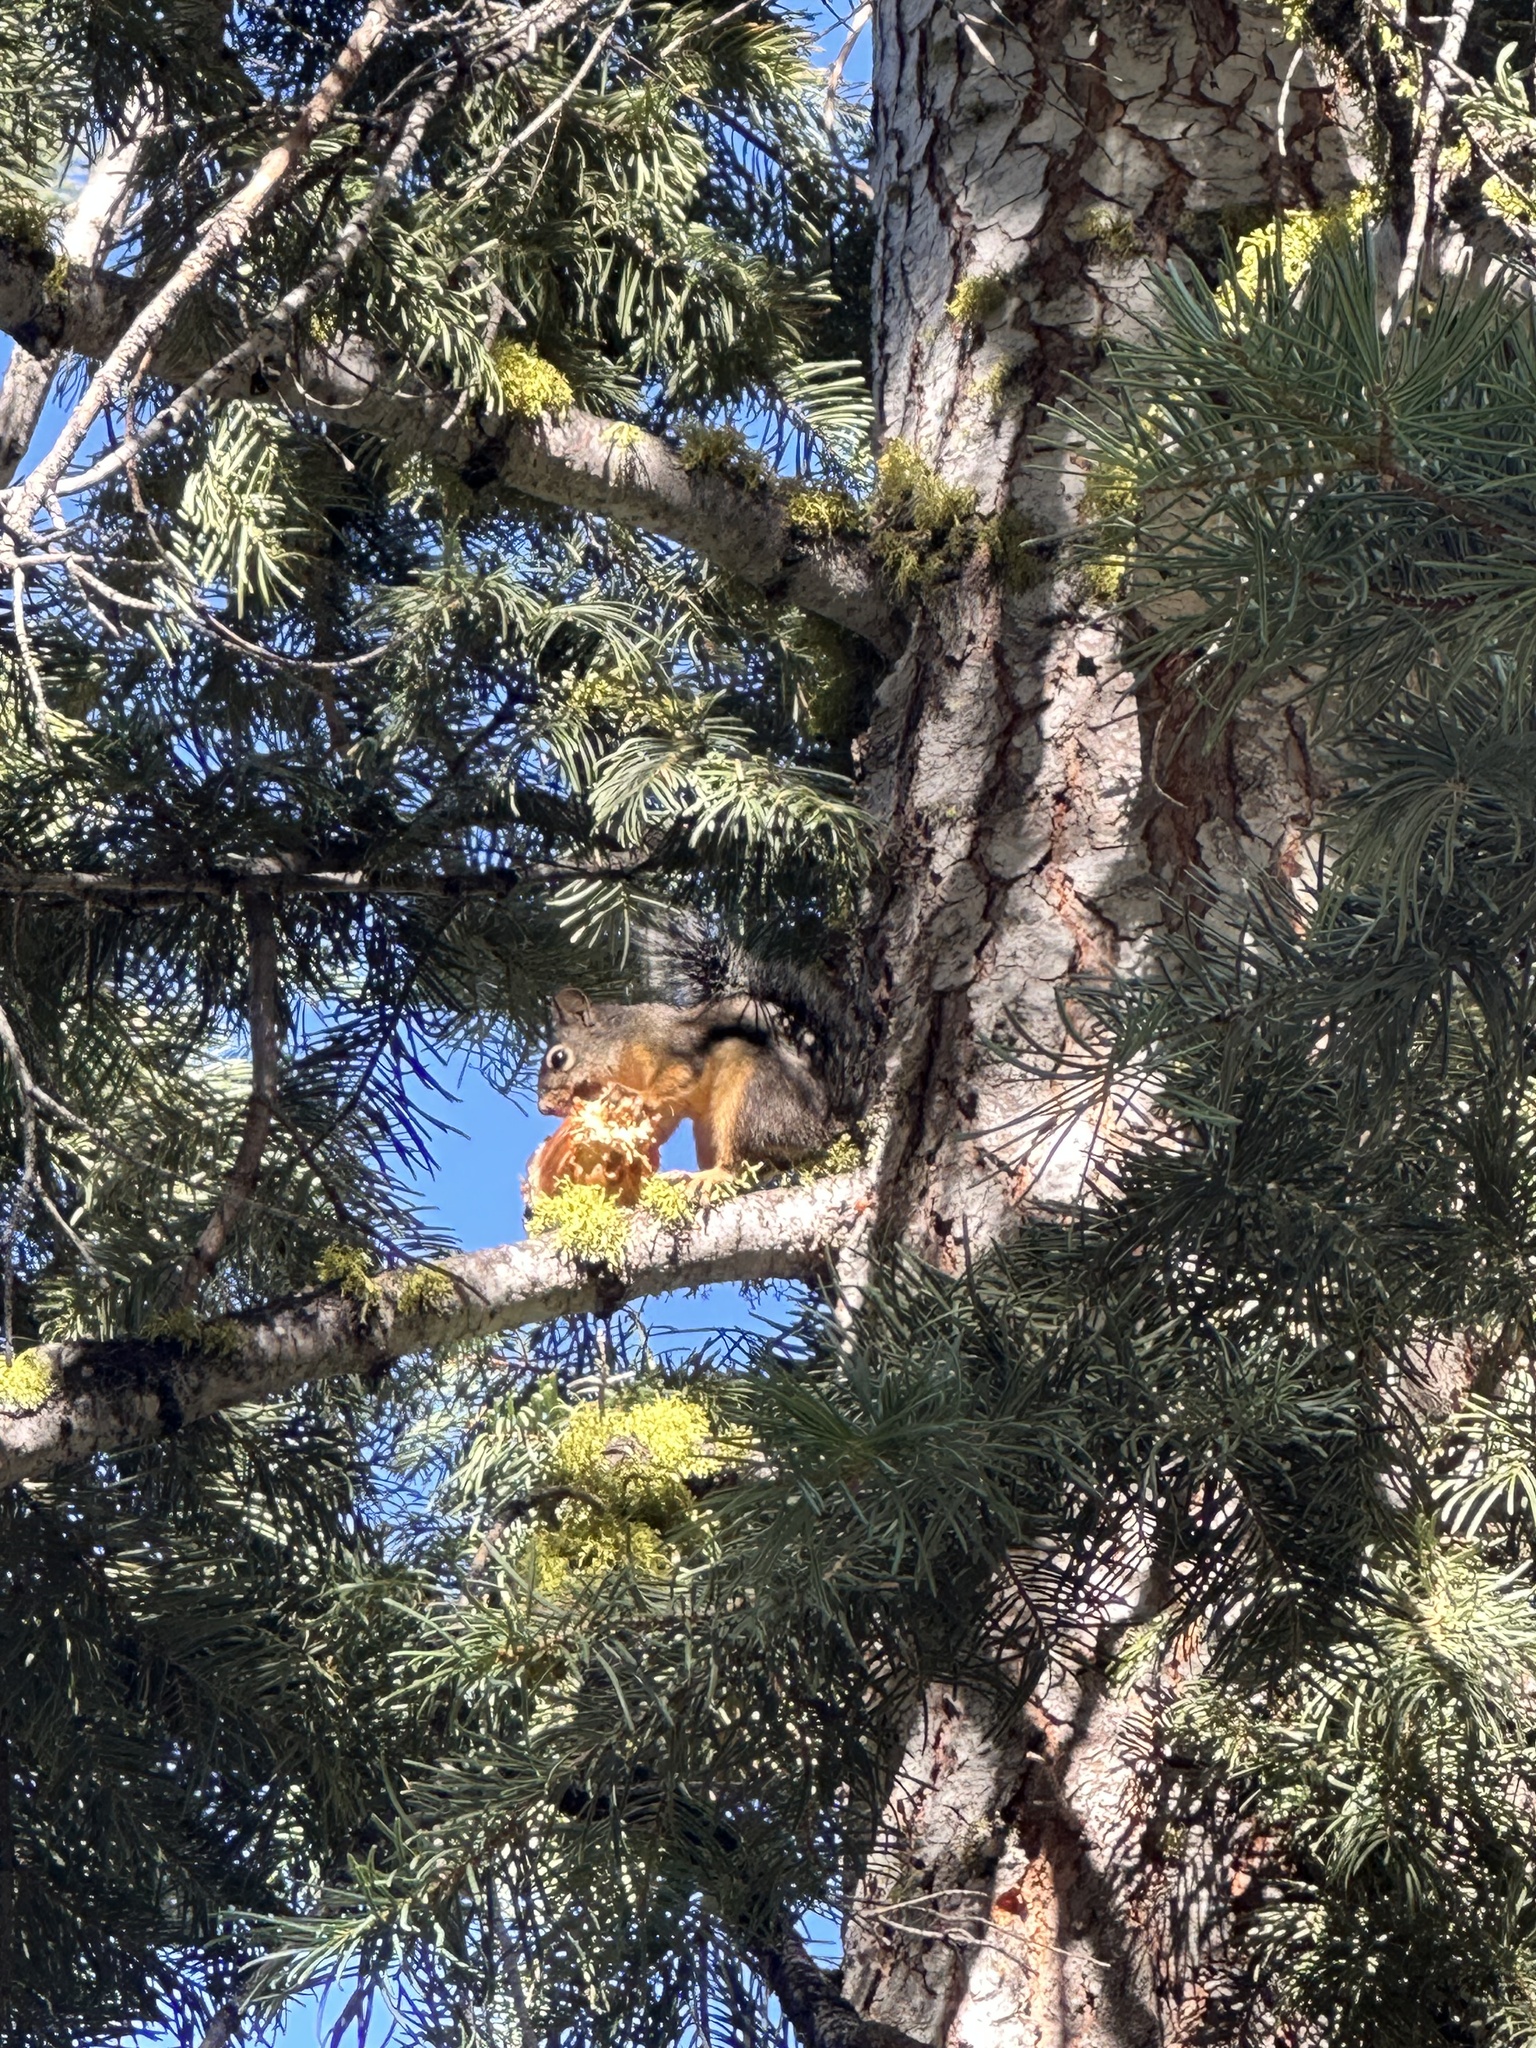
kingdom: Animalia
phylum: Chordata
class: Mammalia
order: Rodentia
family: Sciuridae
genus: Tamiasciurus
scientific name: Tamiasciurus douglasii
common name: Douglas's squirrel
